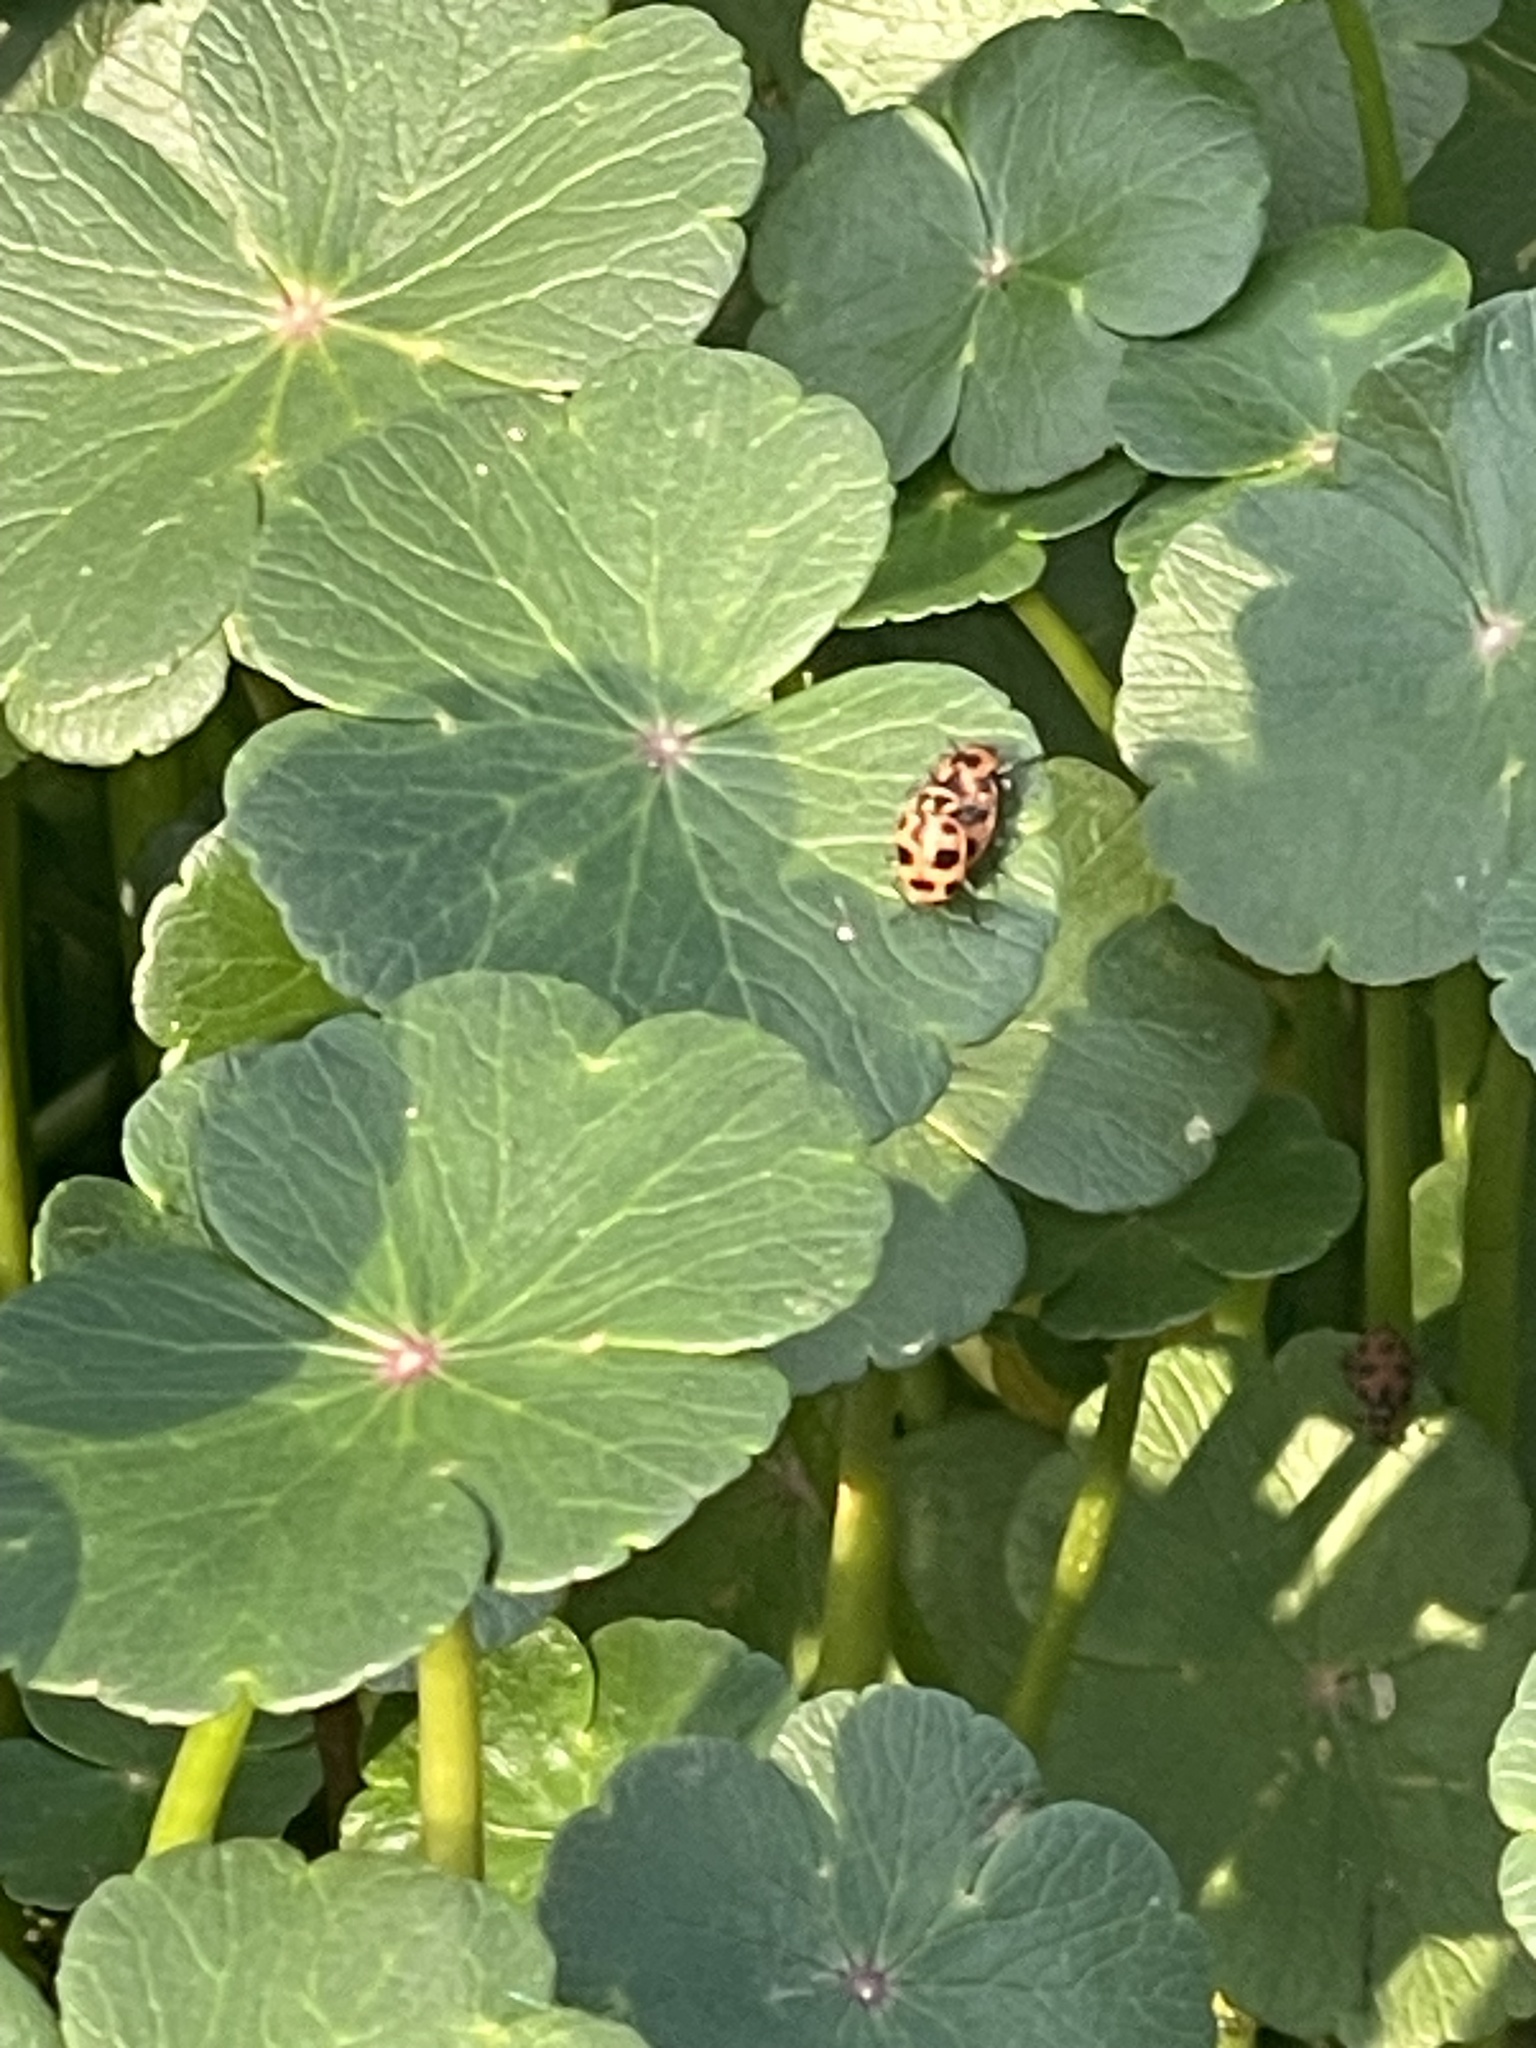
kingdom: Animalia
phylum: Arthropoda
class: Insecta
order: Coleoptera
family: Coccinellidae
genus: Coleomegilla
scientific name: Coleomegilla maculata
